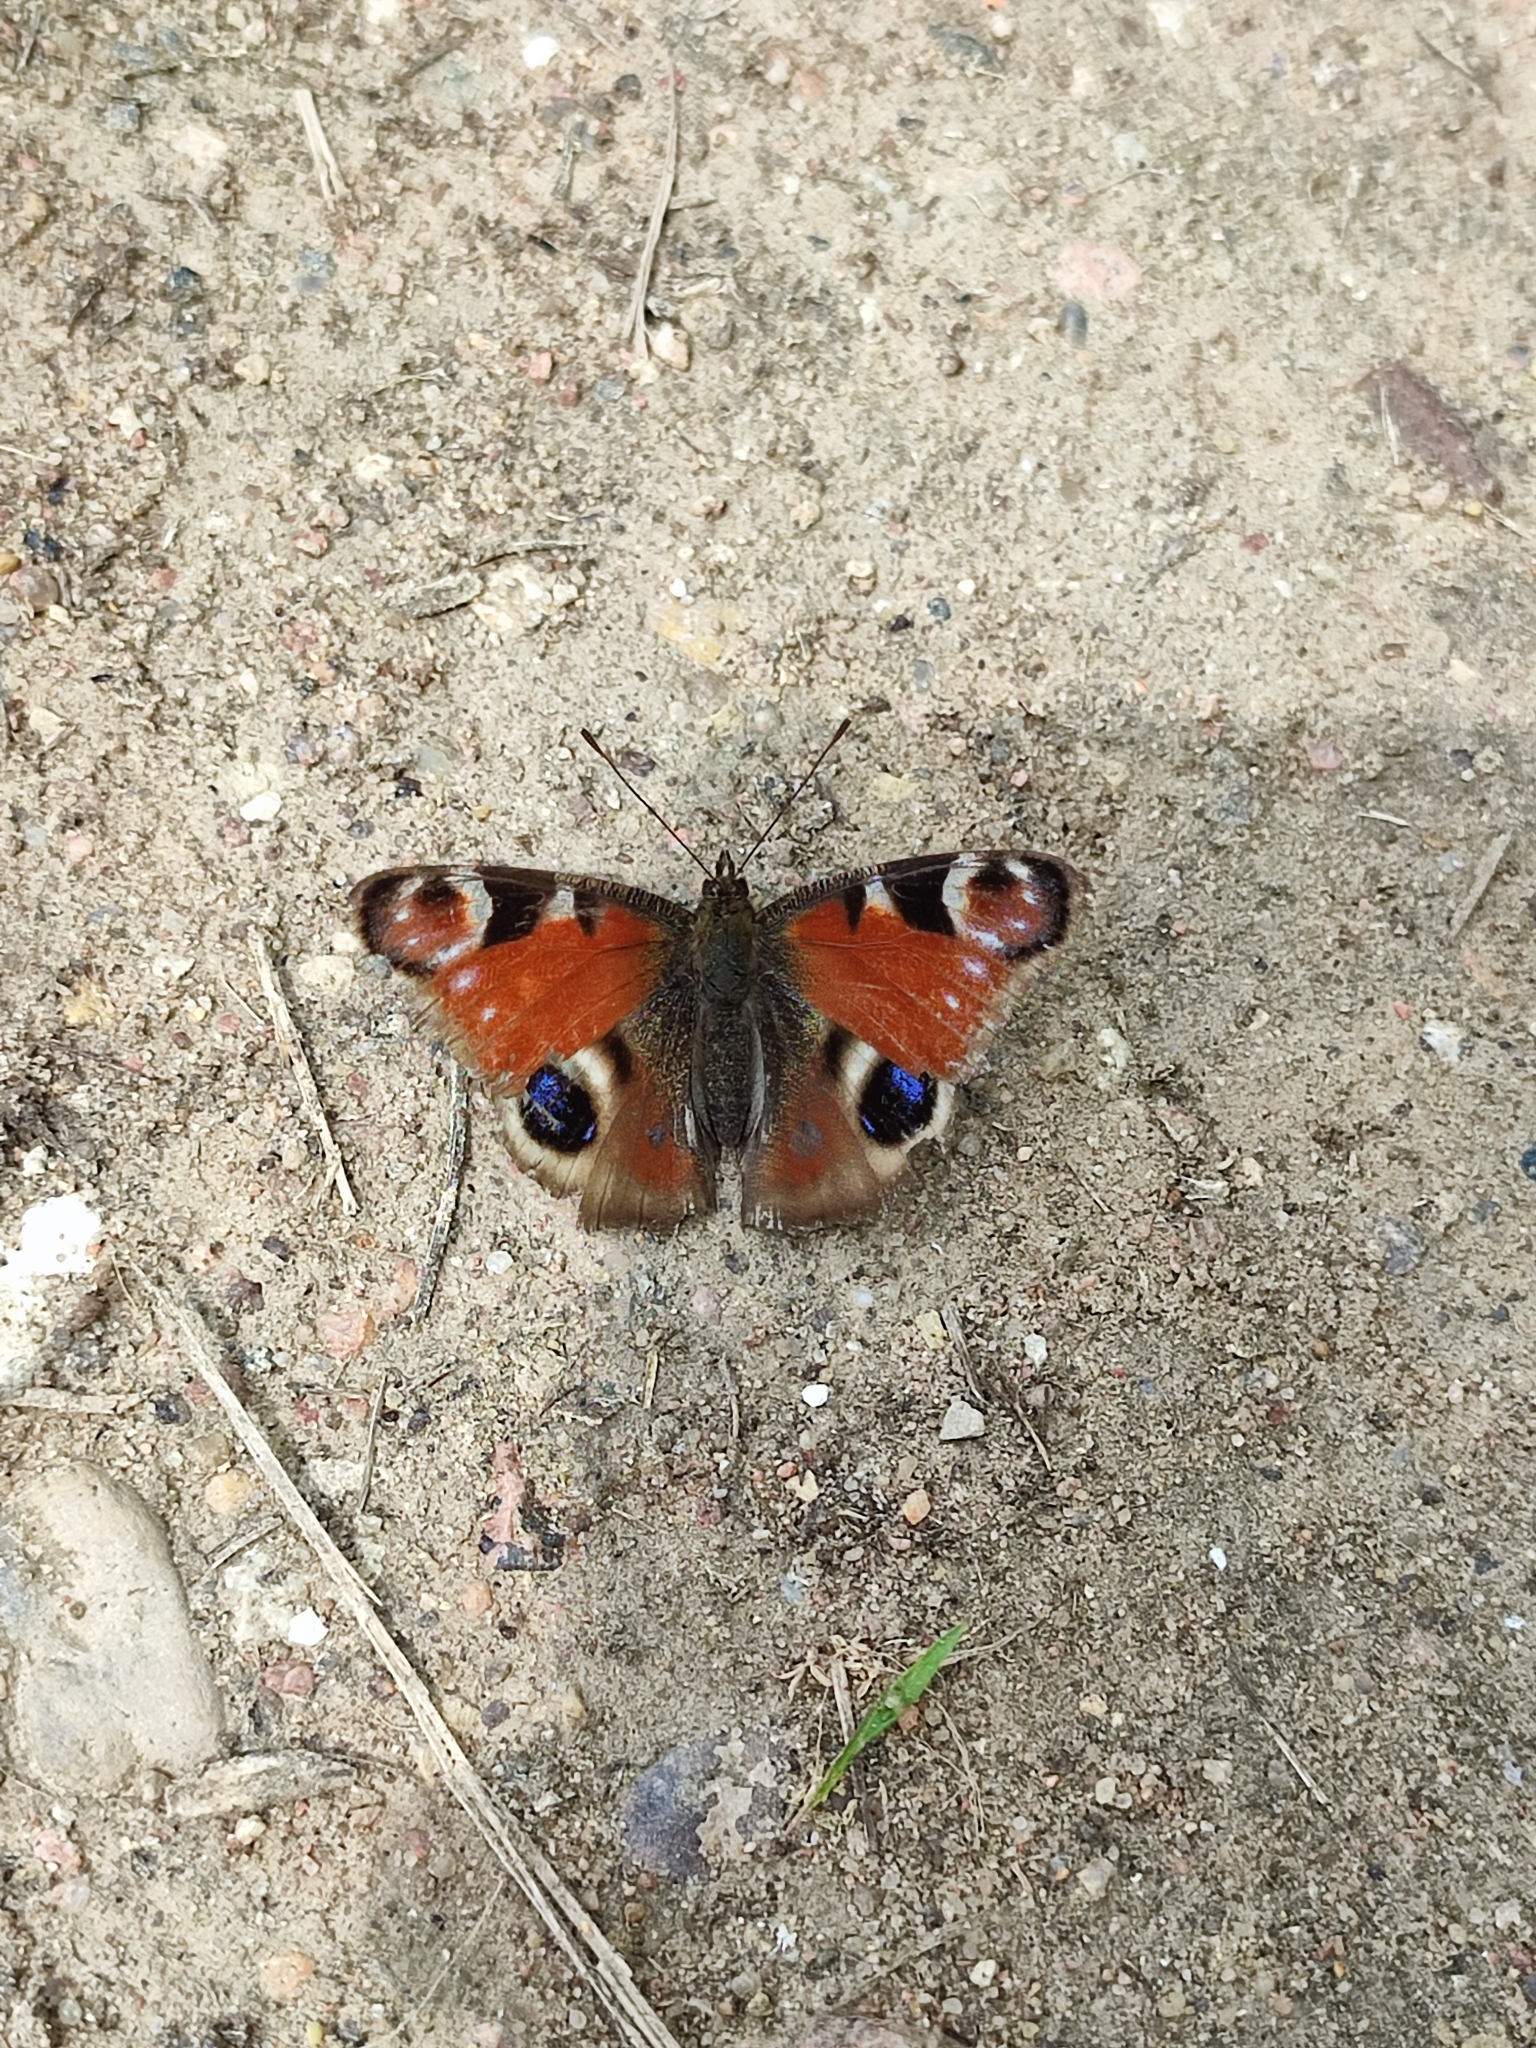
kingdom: Animalia
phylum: Arthropoda
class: Insecta
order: Lepidoptera
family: Nymphalidae
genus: Aglais
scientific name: Aglais io
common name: Peacock
